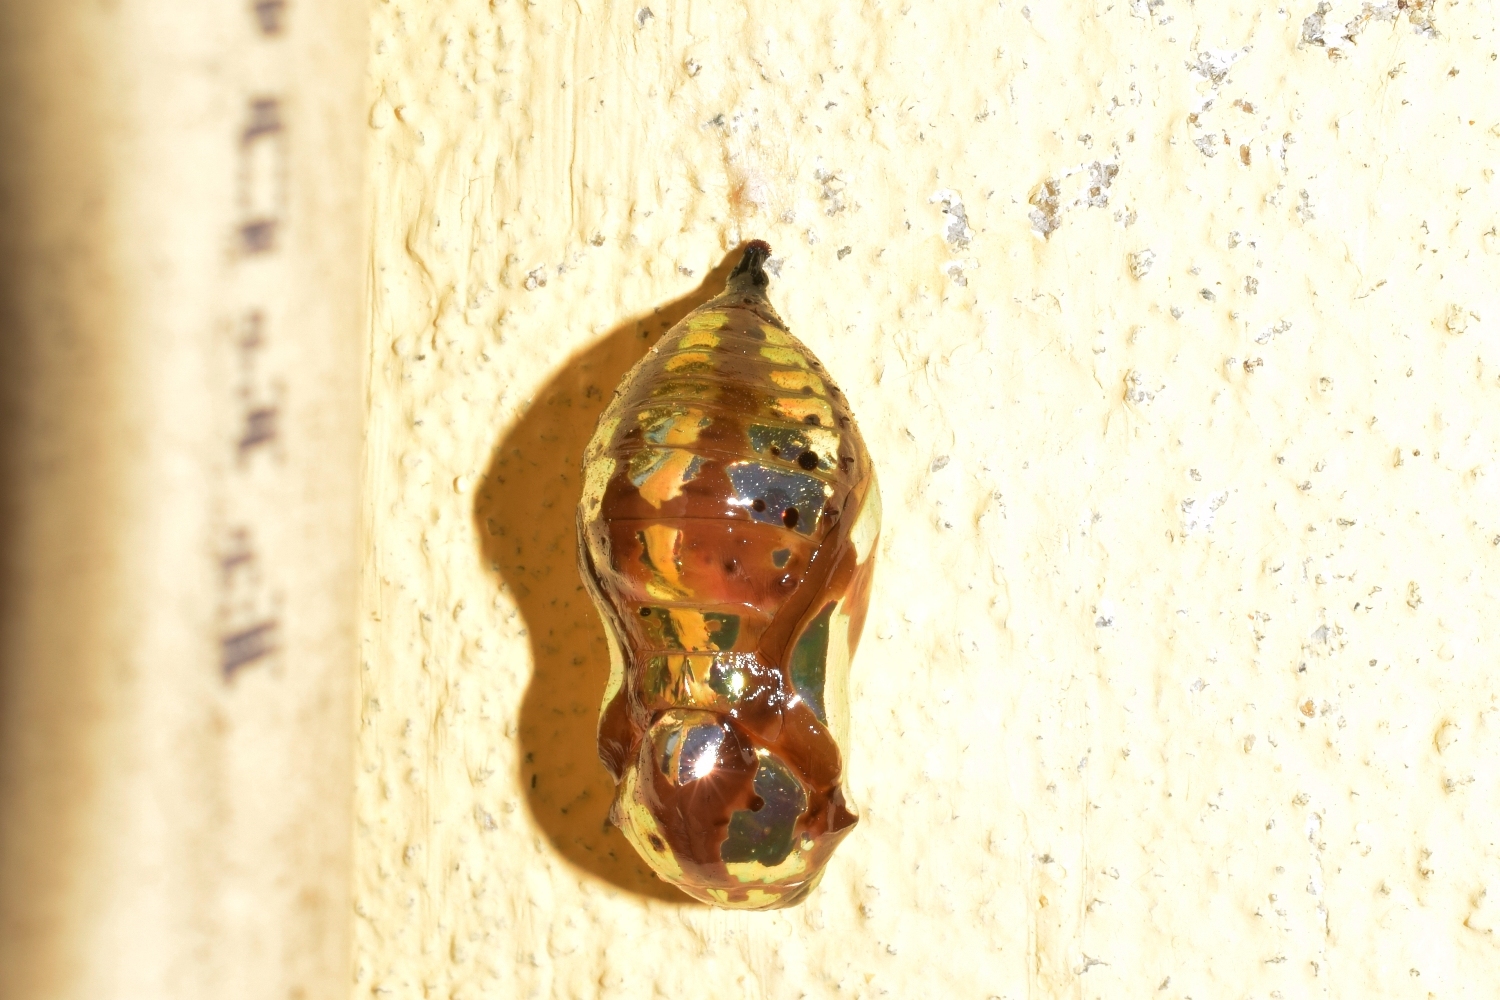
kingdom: Animalia
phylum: Arthropoda
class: Insecta
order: Lepidoptera
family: Nymphalidae
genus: Euploea
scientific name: Euploea core
